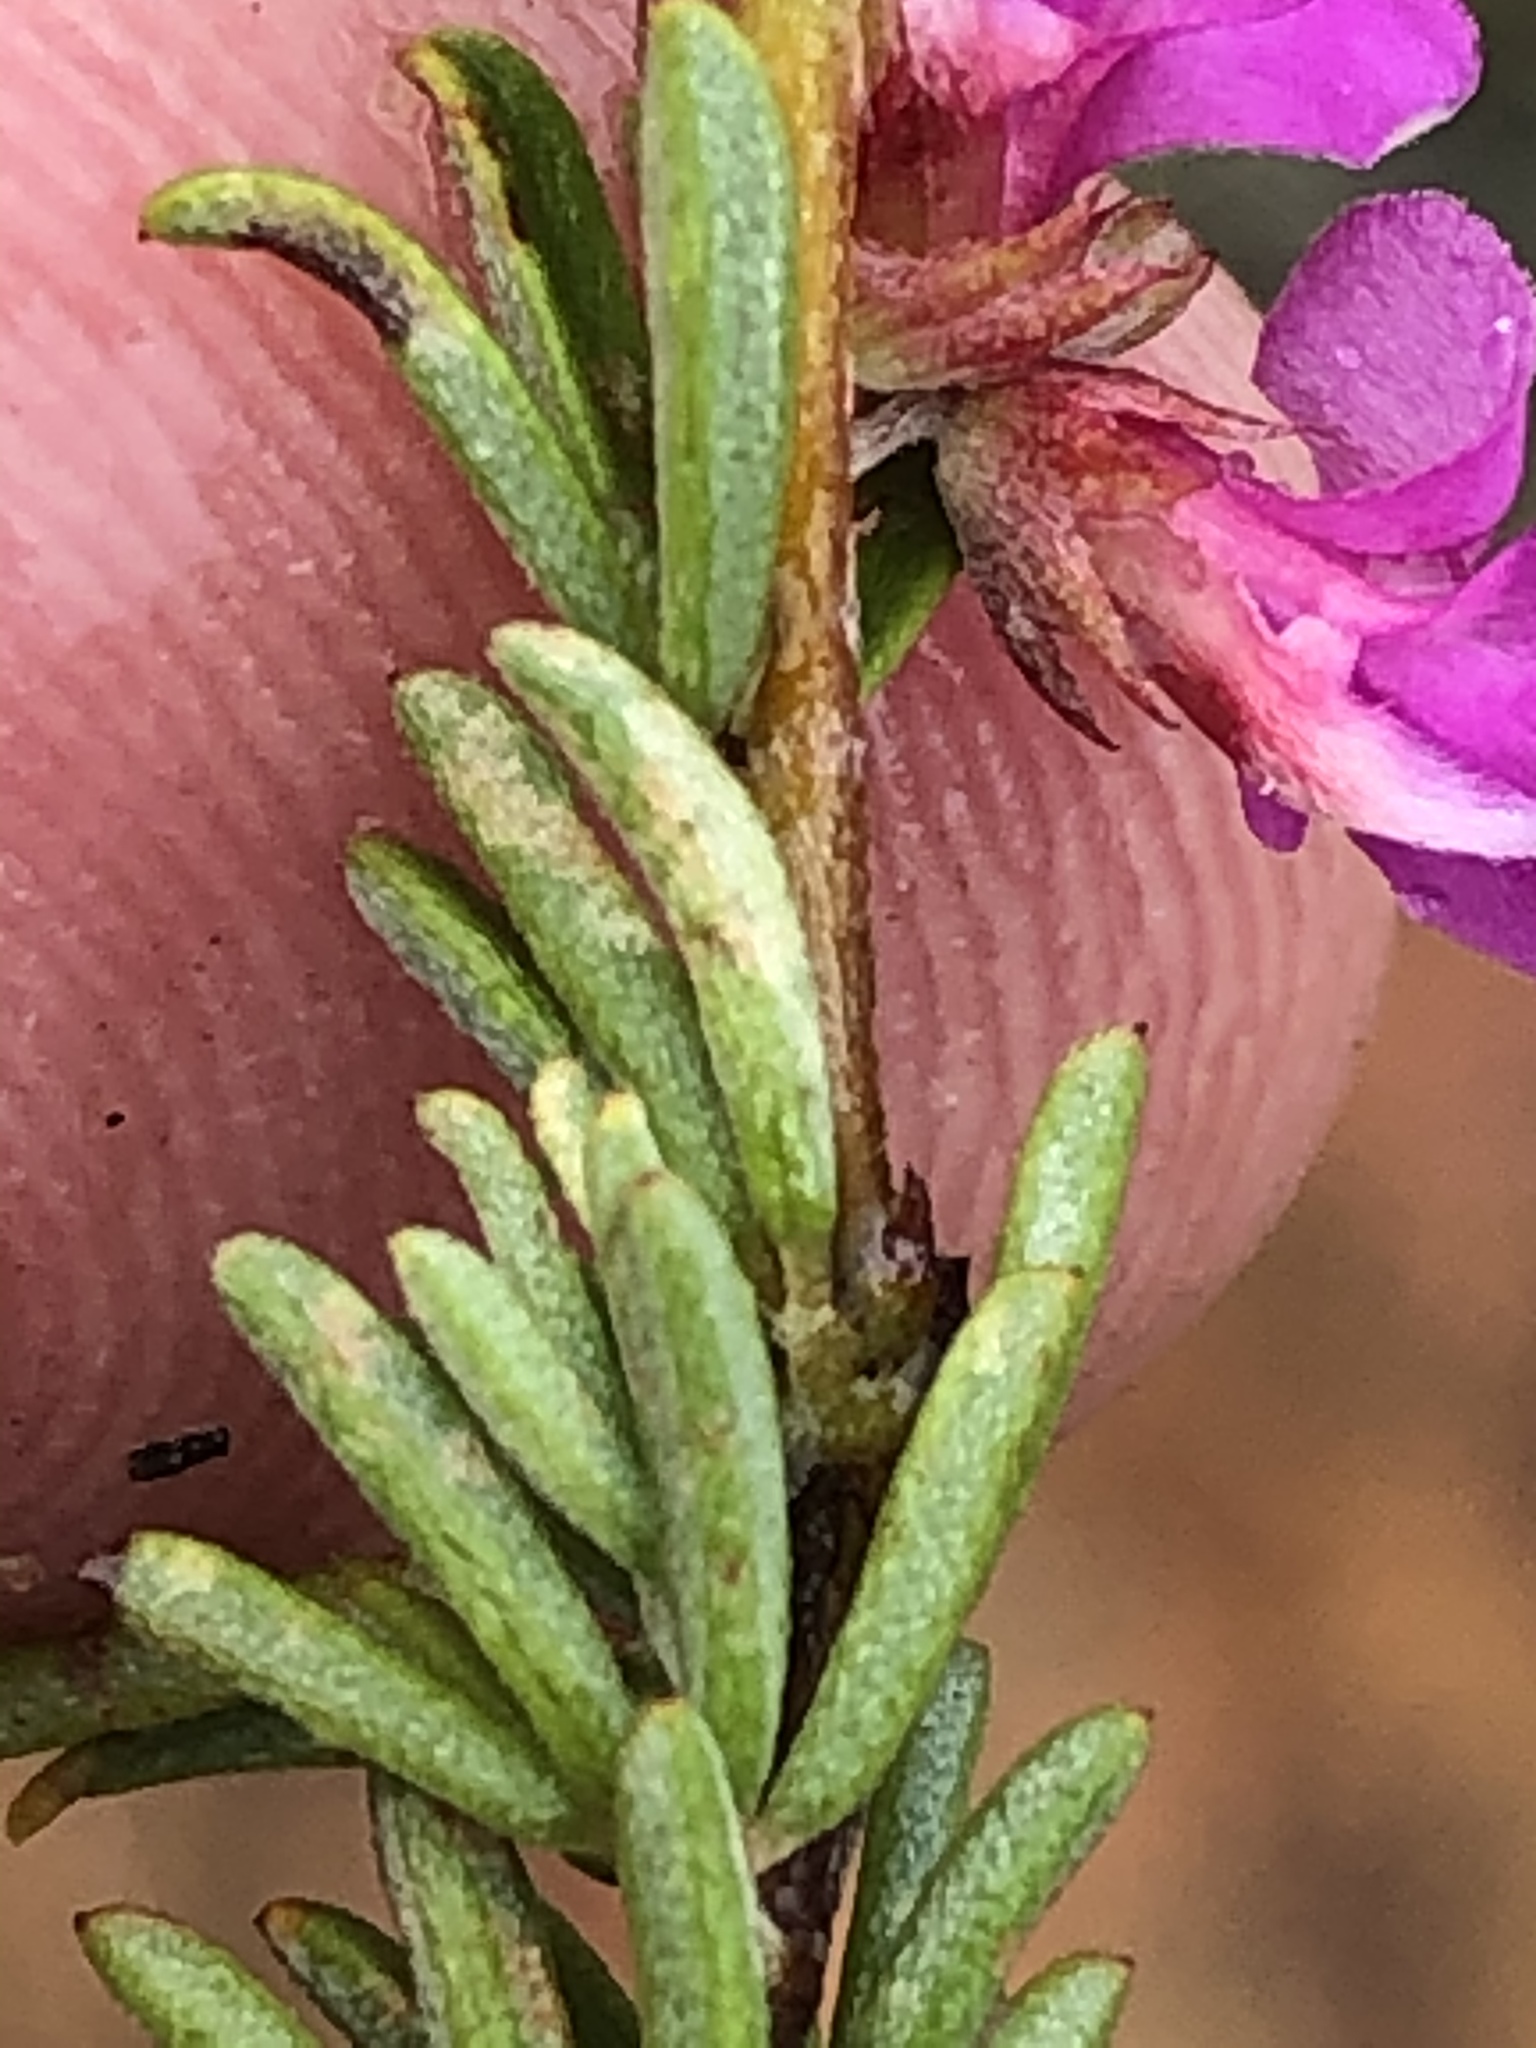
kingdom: Plantae
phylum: Tracheophyta
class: Magnoliopsida
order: Fabales
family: Fabaceae
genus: Indigofera
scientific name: Indigofera pappei
